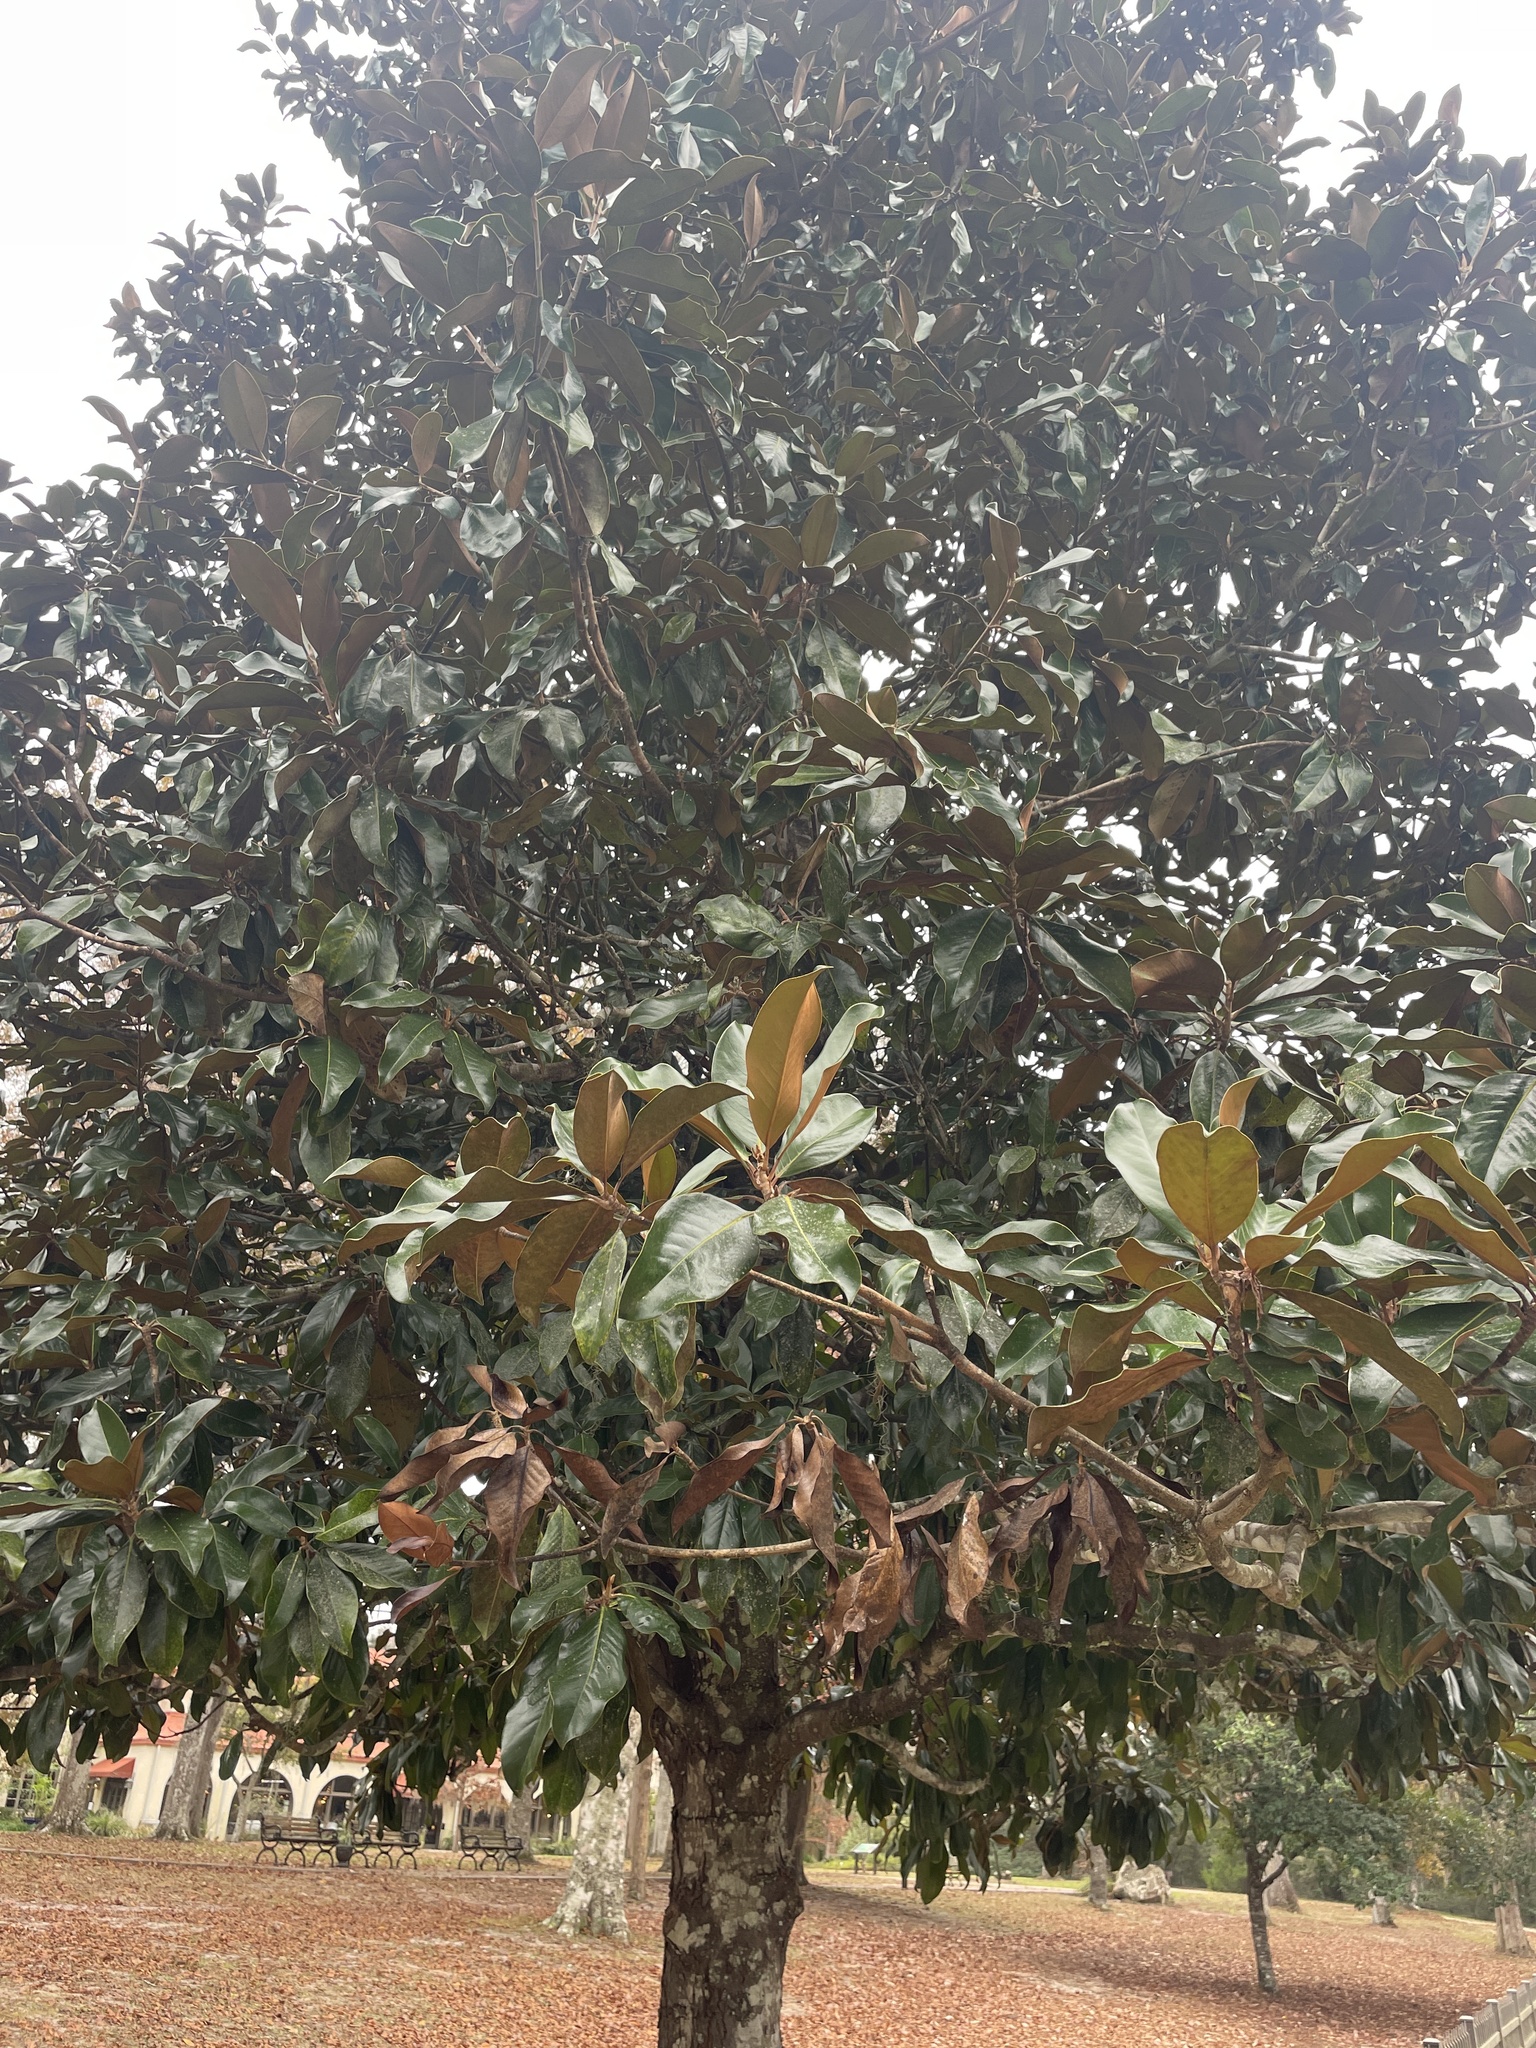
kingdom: Plantae
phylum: Tracheophyta
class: Magnoliopsida
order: Magnoliales
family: Magnoliaceae
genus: Magnolia
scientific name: Magnolia grandiflora
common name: Southern magnolia
